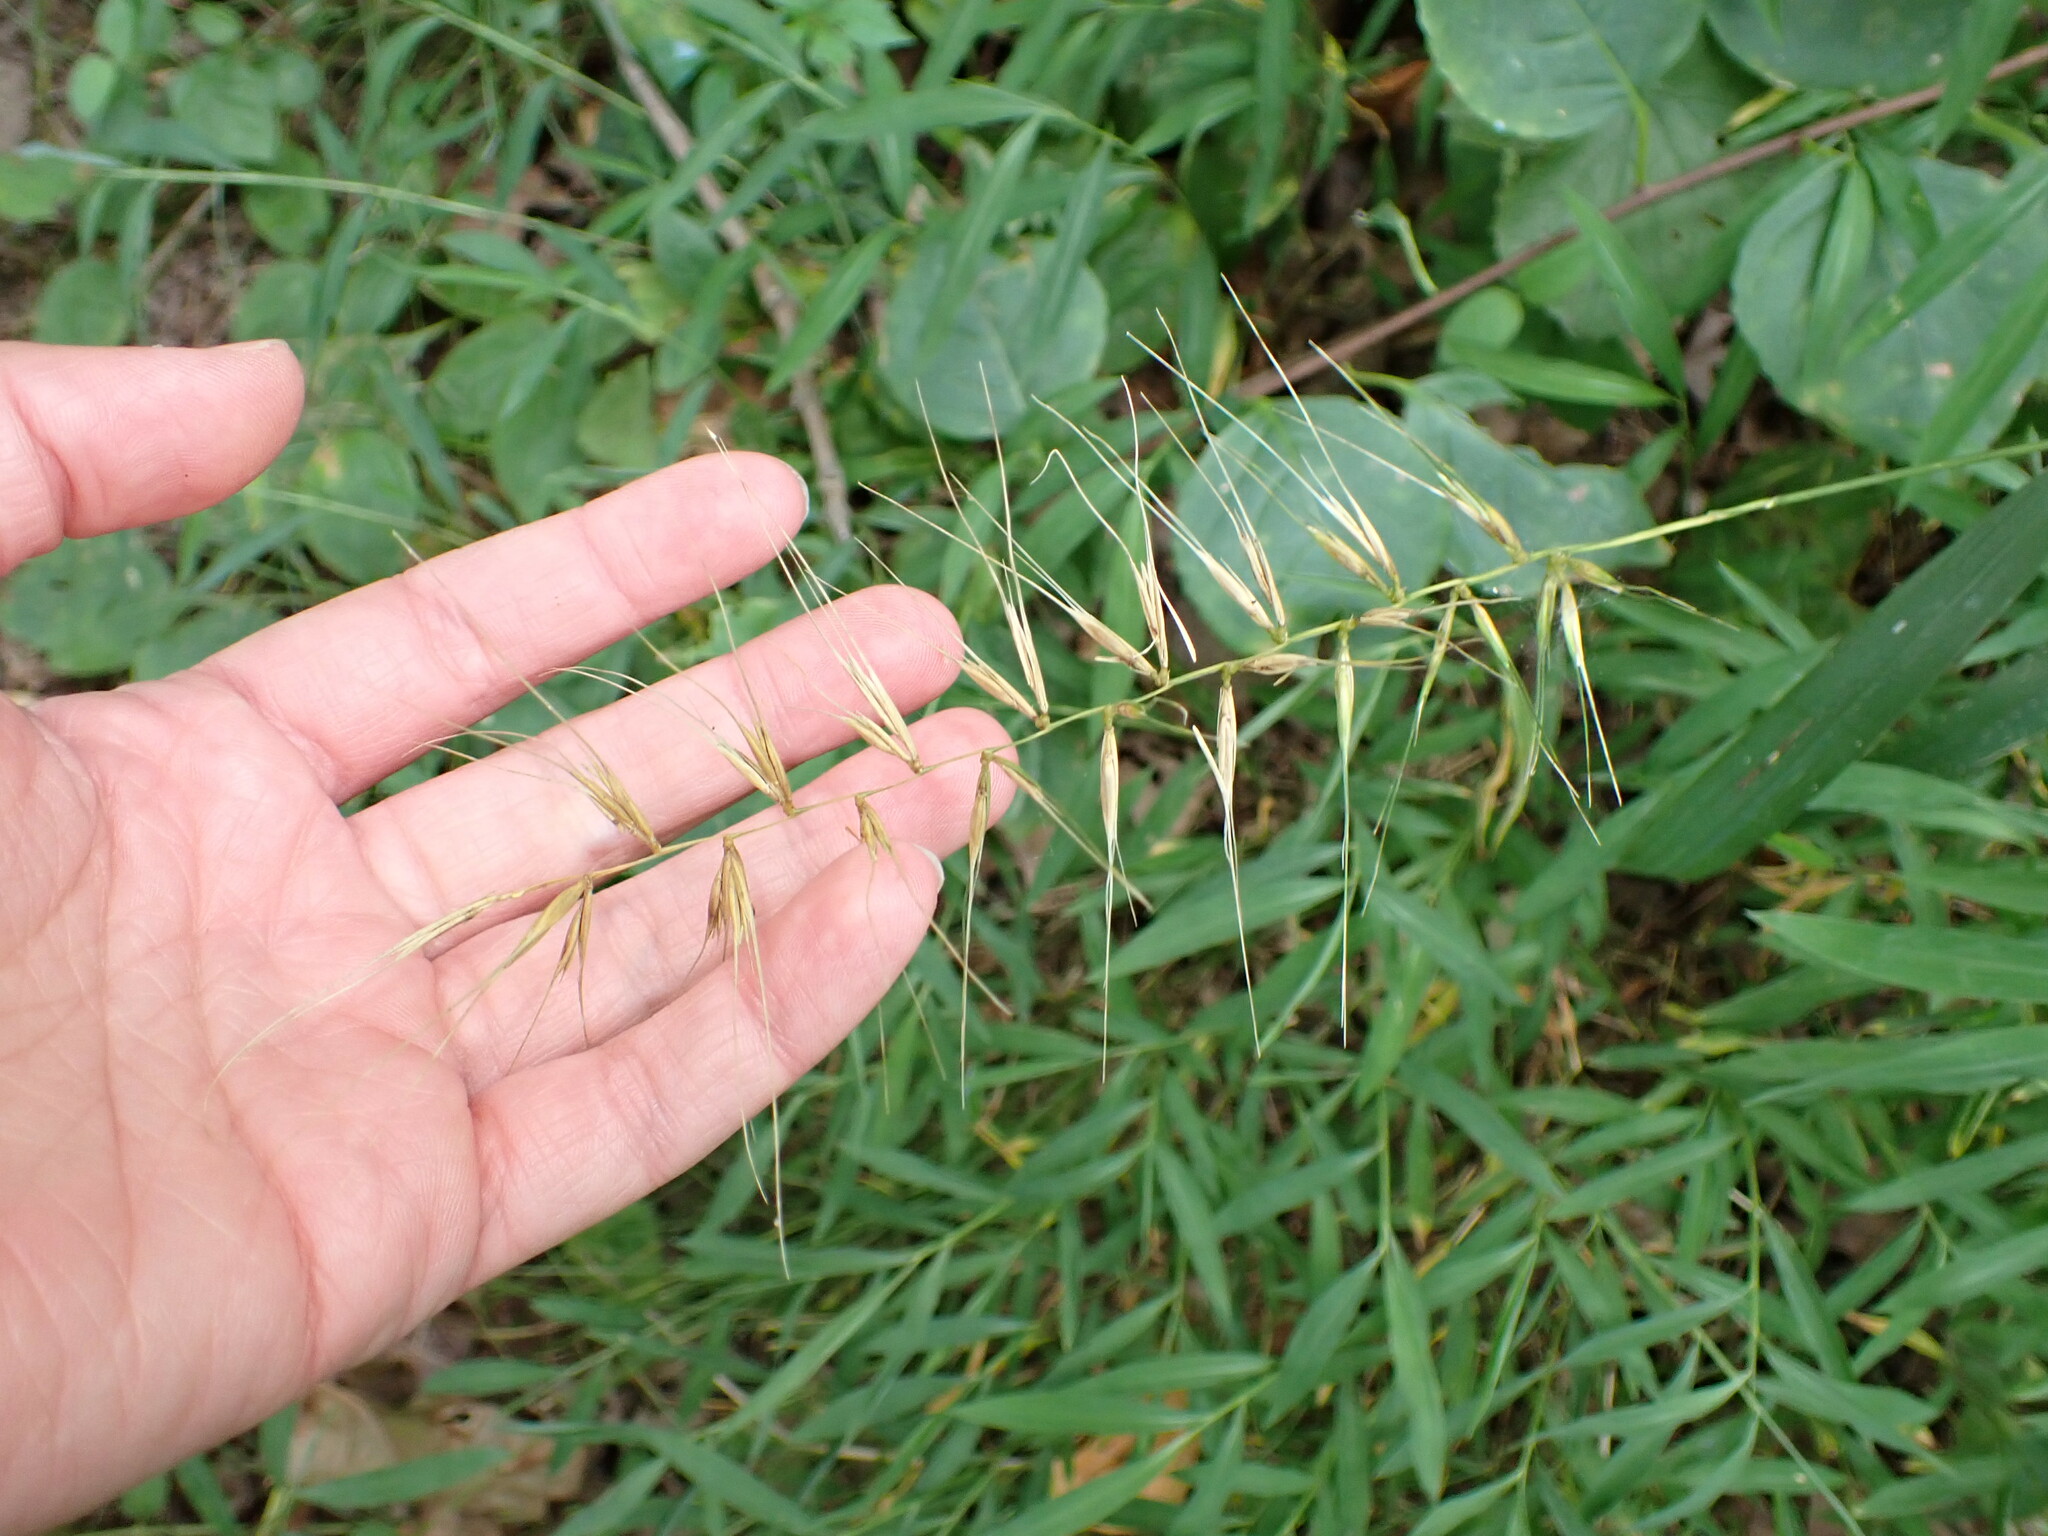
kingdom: Plantae
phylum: Tracheophyta
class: Liliopsida
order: Poales
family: Poaceae
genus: Elymus
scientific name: Elymus hystrix
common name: Bottlebrush grass
